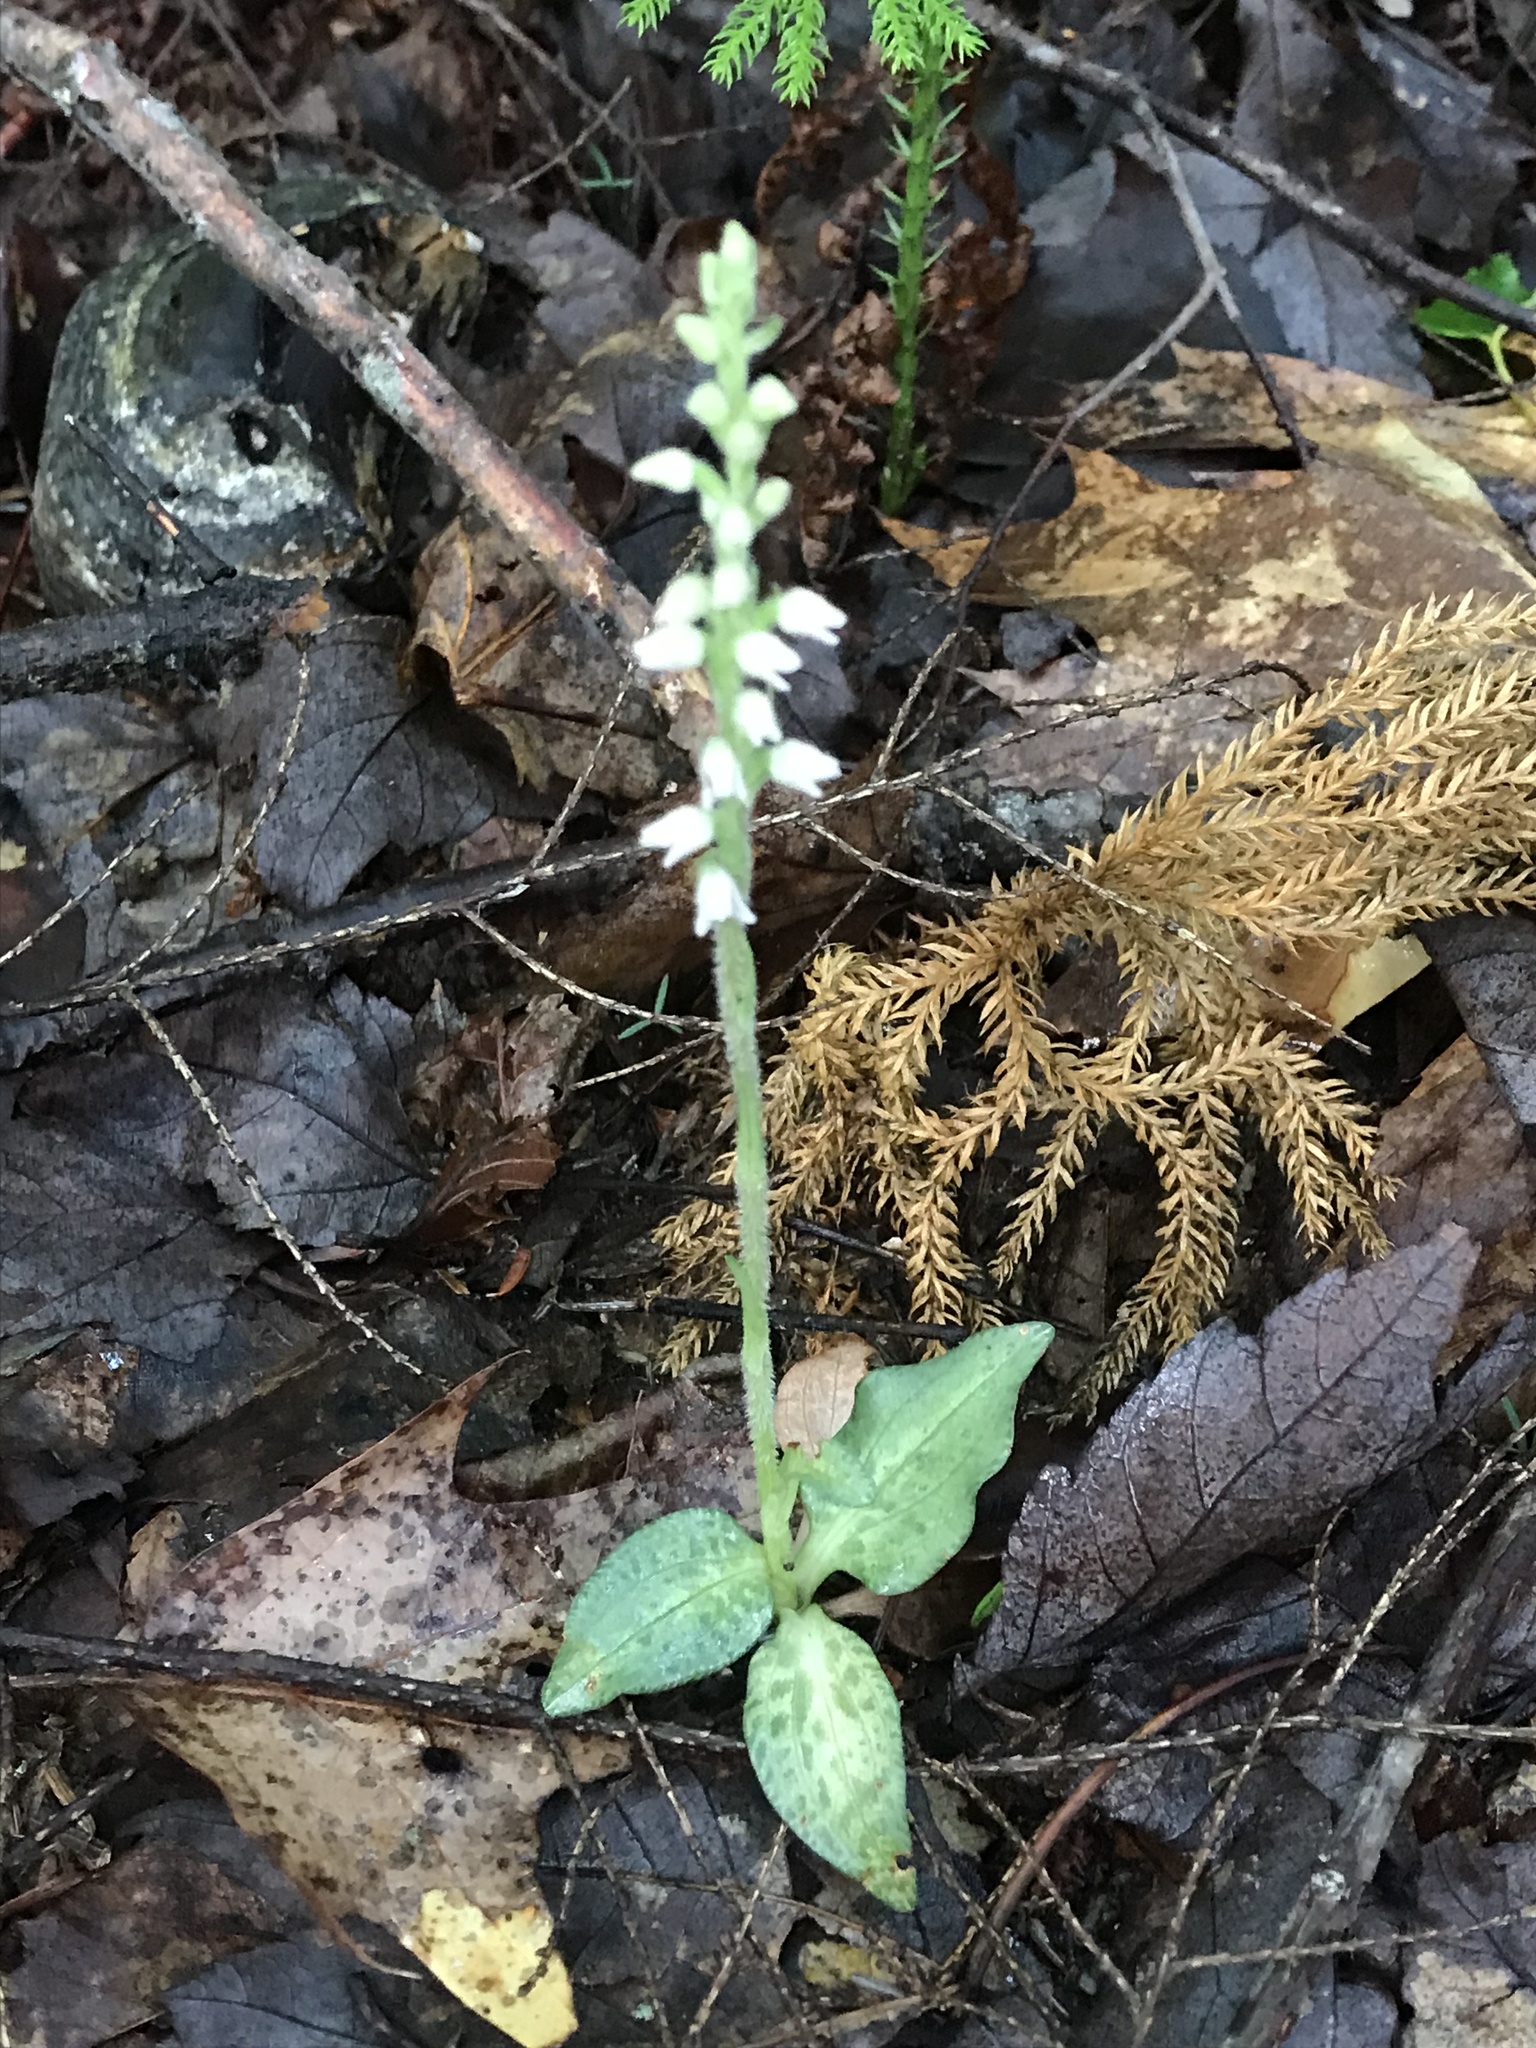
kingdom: Plantae
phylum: Tracheophyta
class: Liliopsida
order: Asparagales
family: Orchidaceae
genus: Goodyera
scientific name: Goodyera tesselata
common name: Checkered rattlesnake-plantain
